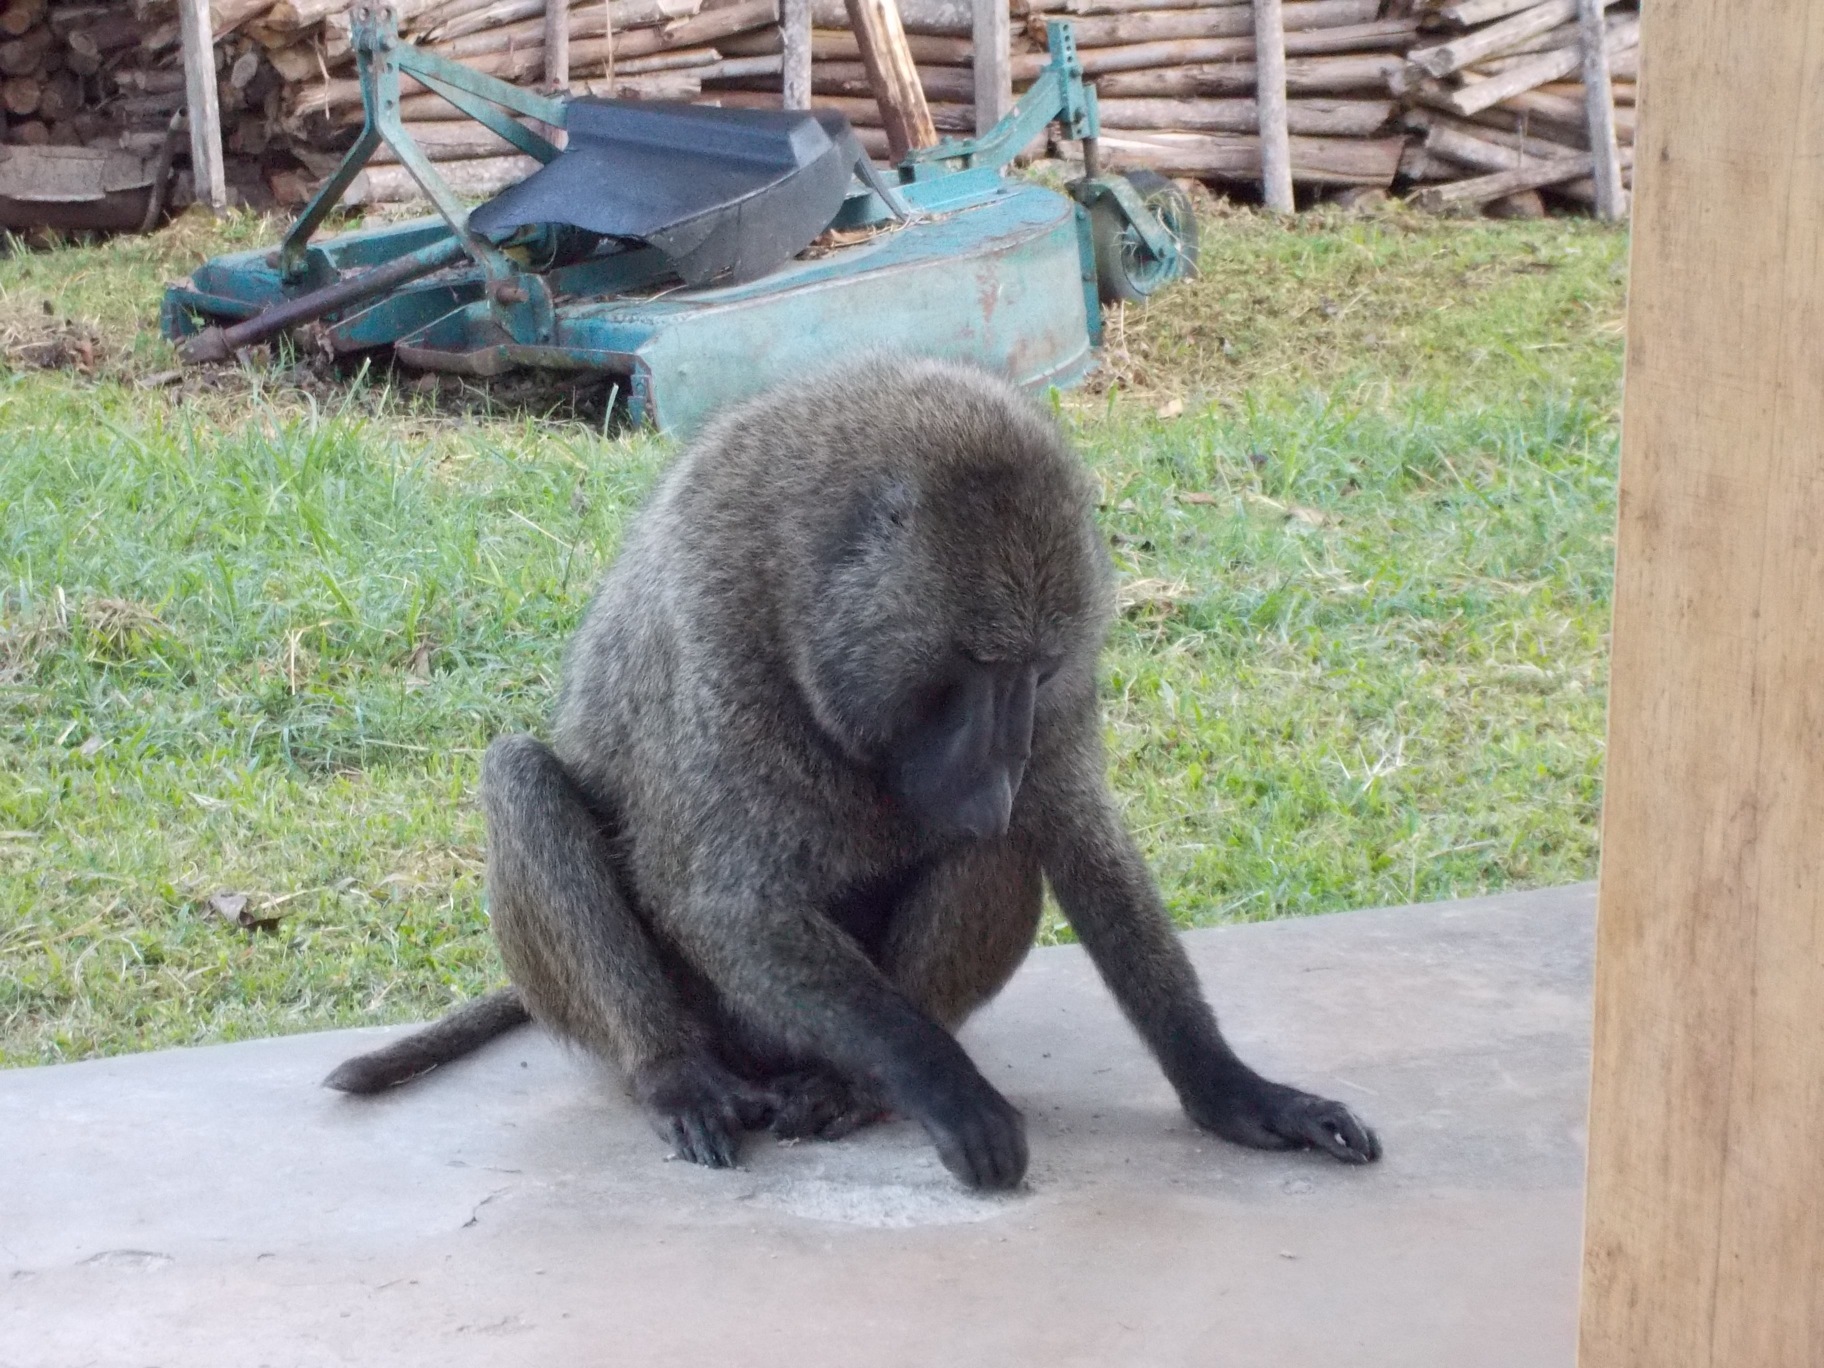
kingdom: Animalia
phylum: Chordata
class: Mammalia
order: Primates
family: Cercopithecidae
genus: Papio
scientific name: Papio anubis
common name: Olive baboon
